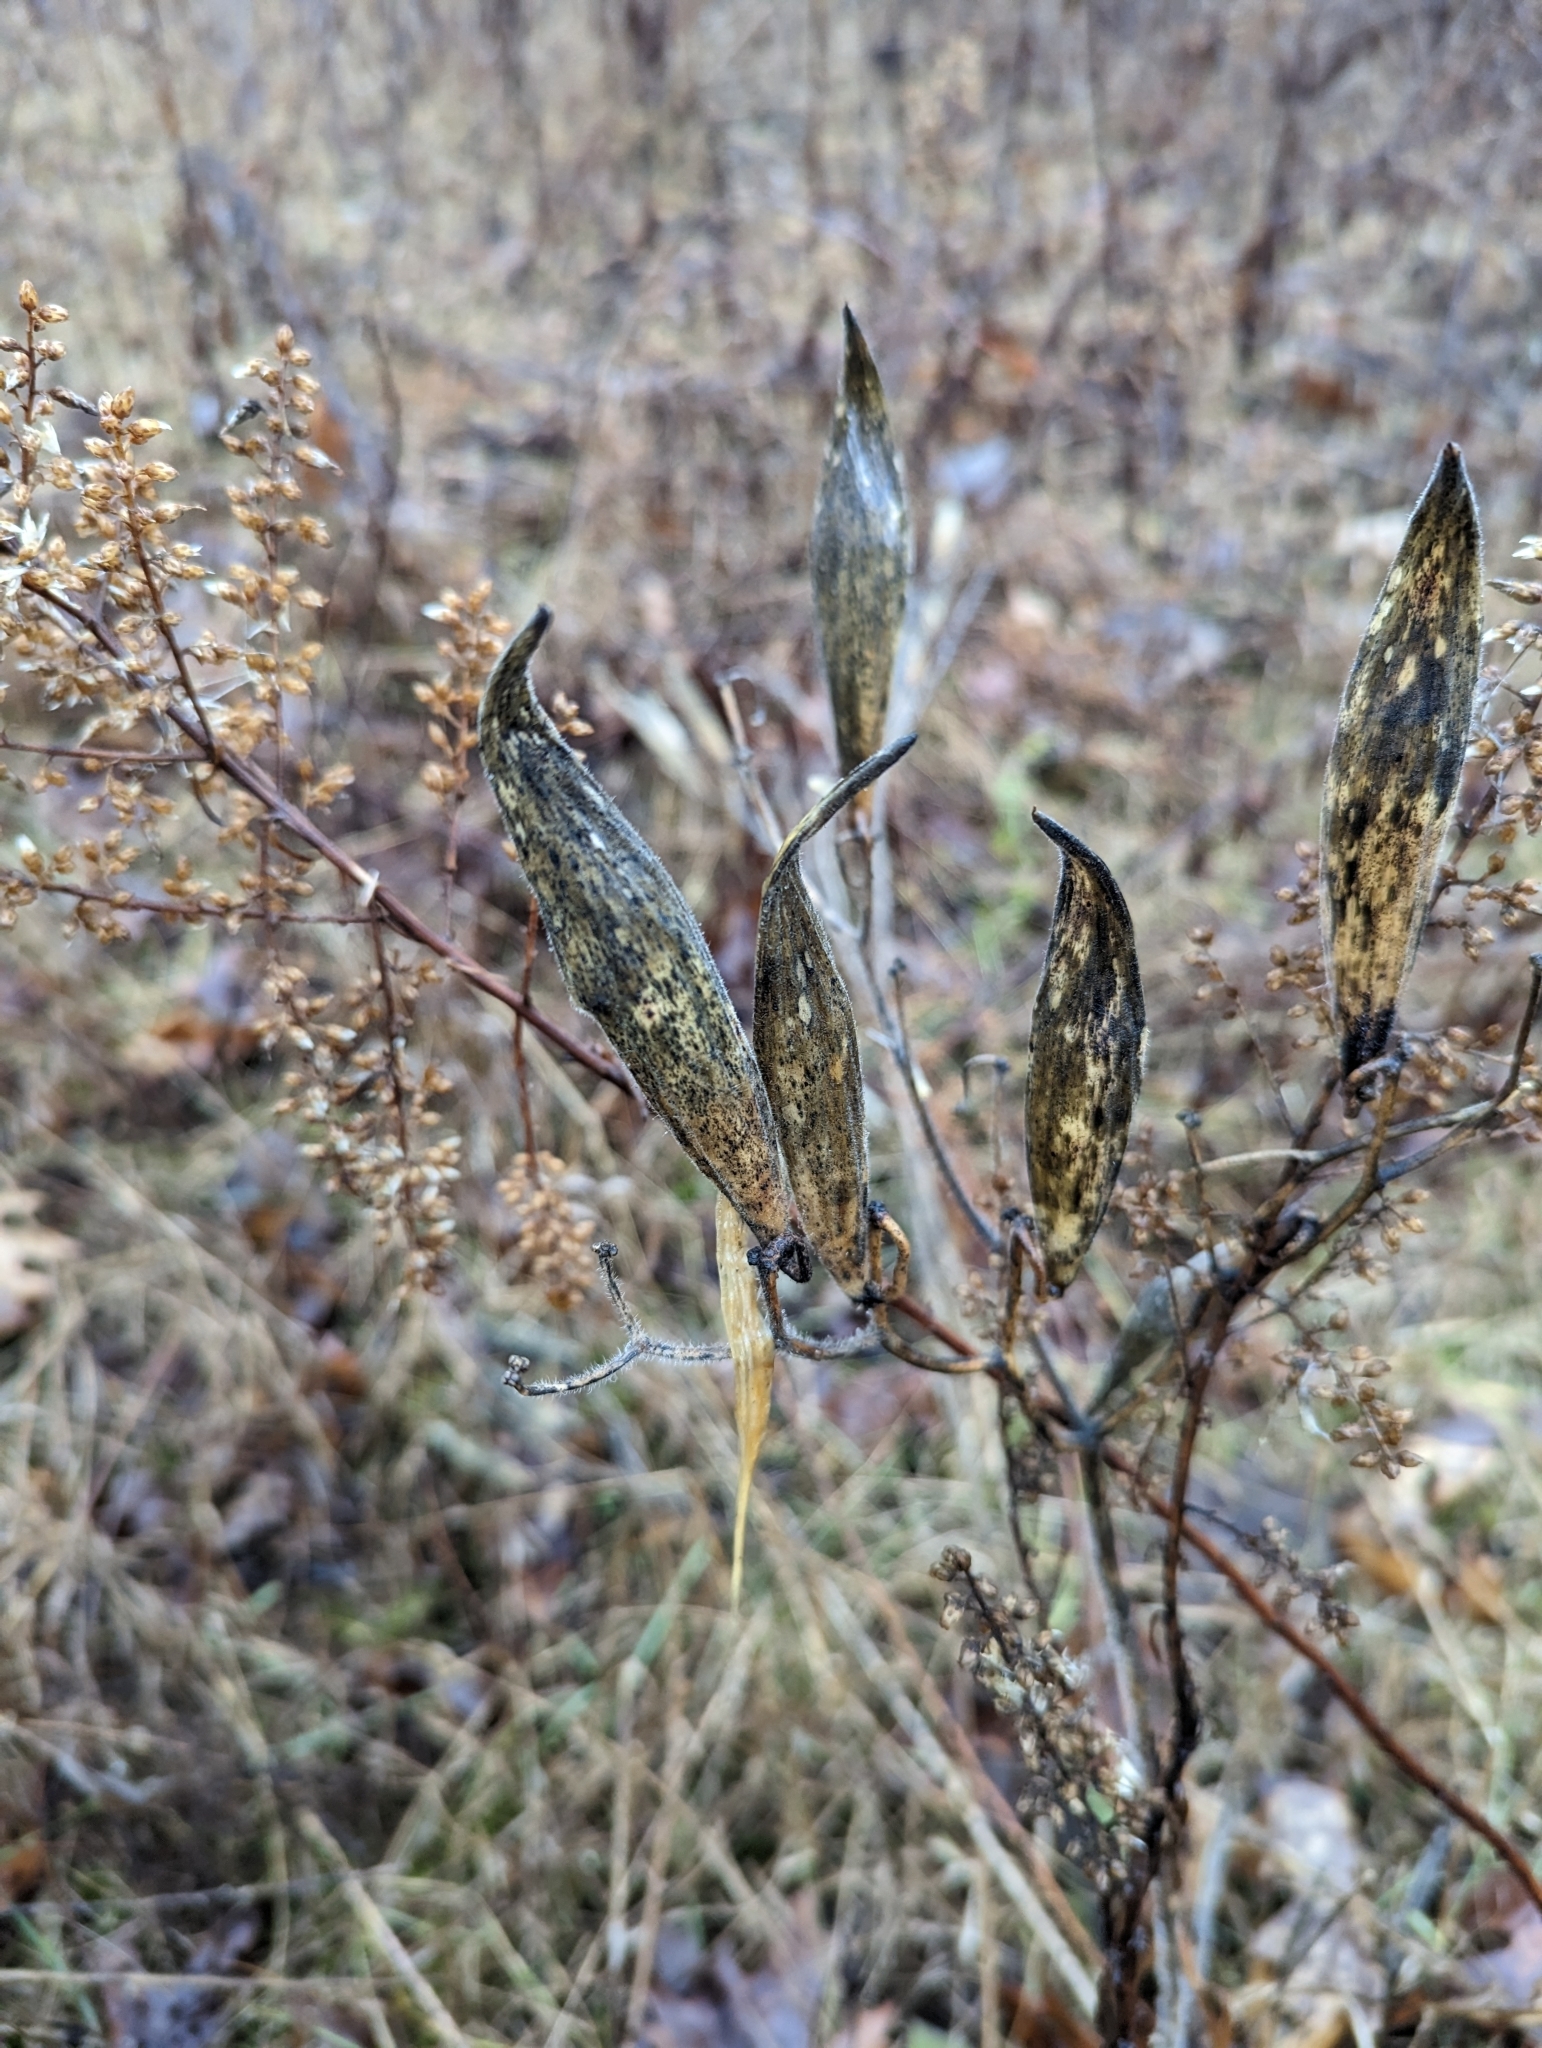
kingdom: Plantae
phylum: Tracheophyta
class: Magnoliopsida
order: Gentianales
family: Apocynaceae
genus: Asclepias
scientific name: Asclepias incarnata
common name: Swamp milkweed
